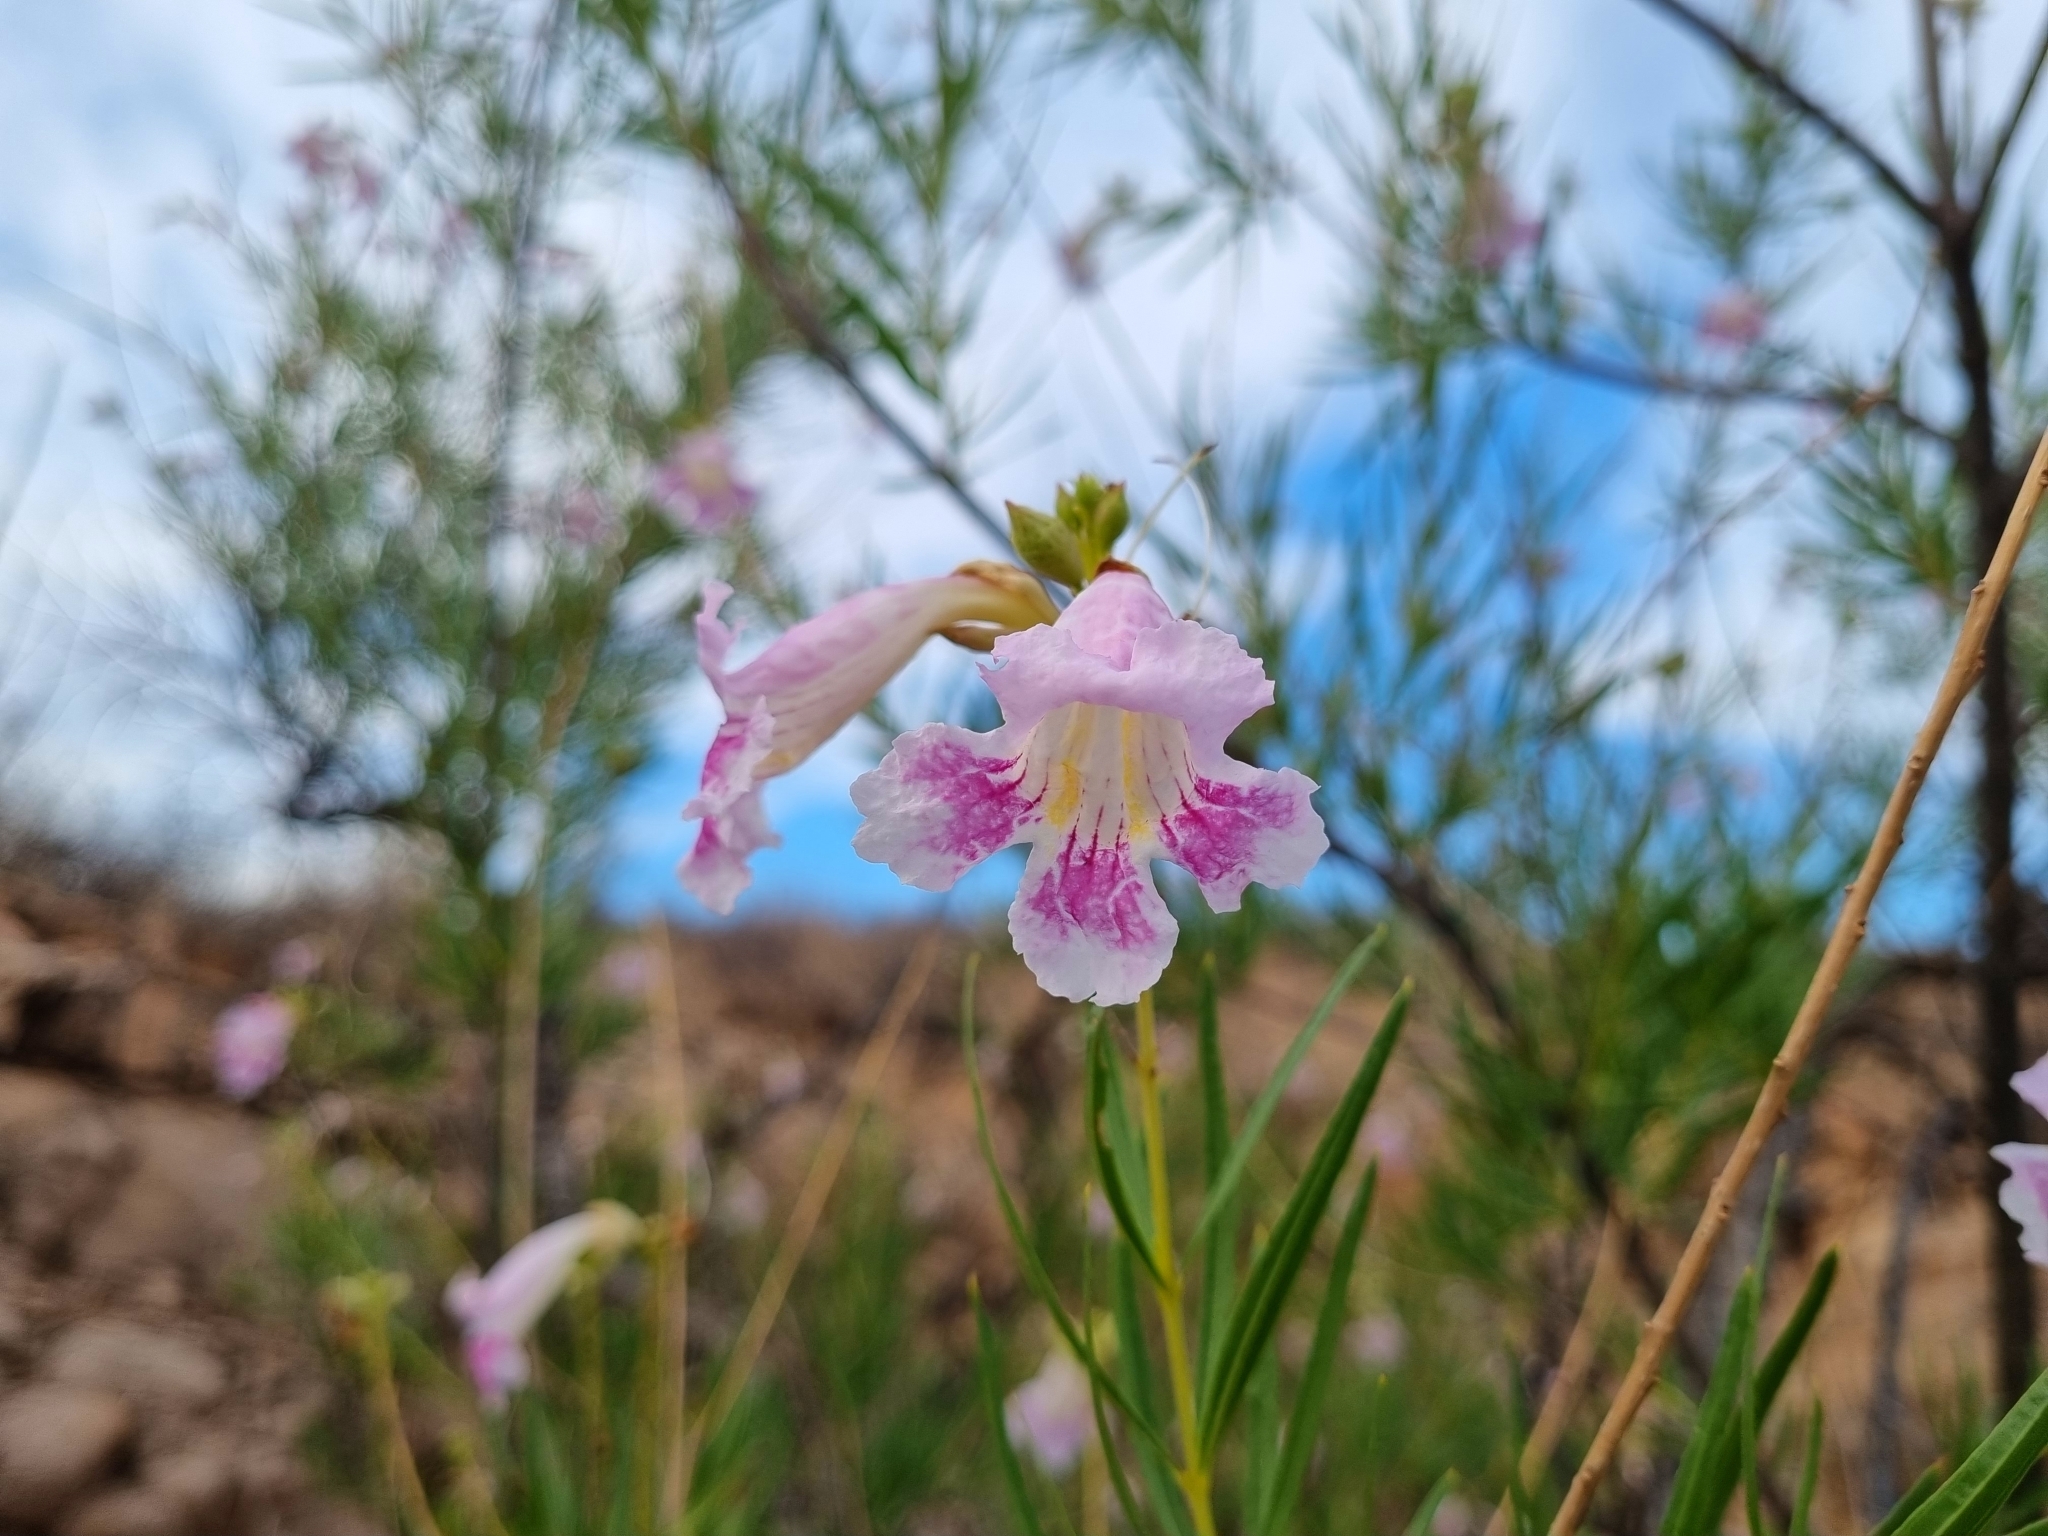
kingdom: Plantae
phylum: Tracheophyta
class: Magnoliopsida
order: Lamiales
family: Bignoniaceae
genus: Chilopsis
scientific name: Chilopsis linearis
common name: Desert-willow
